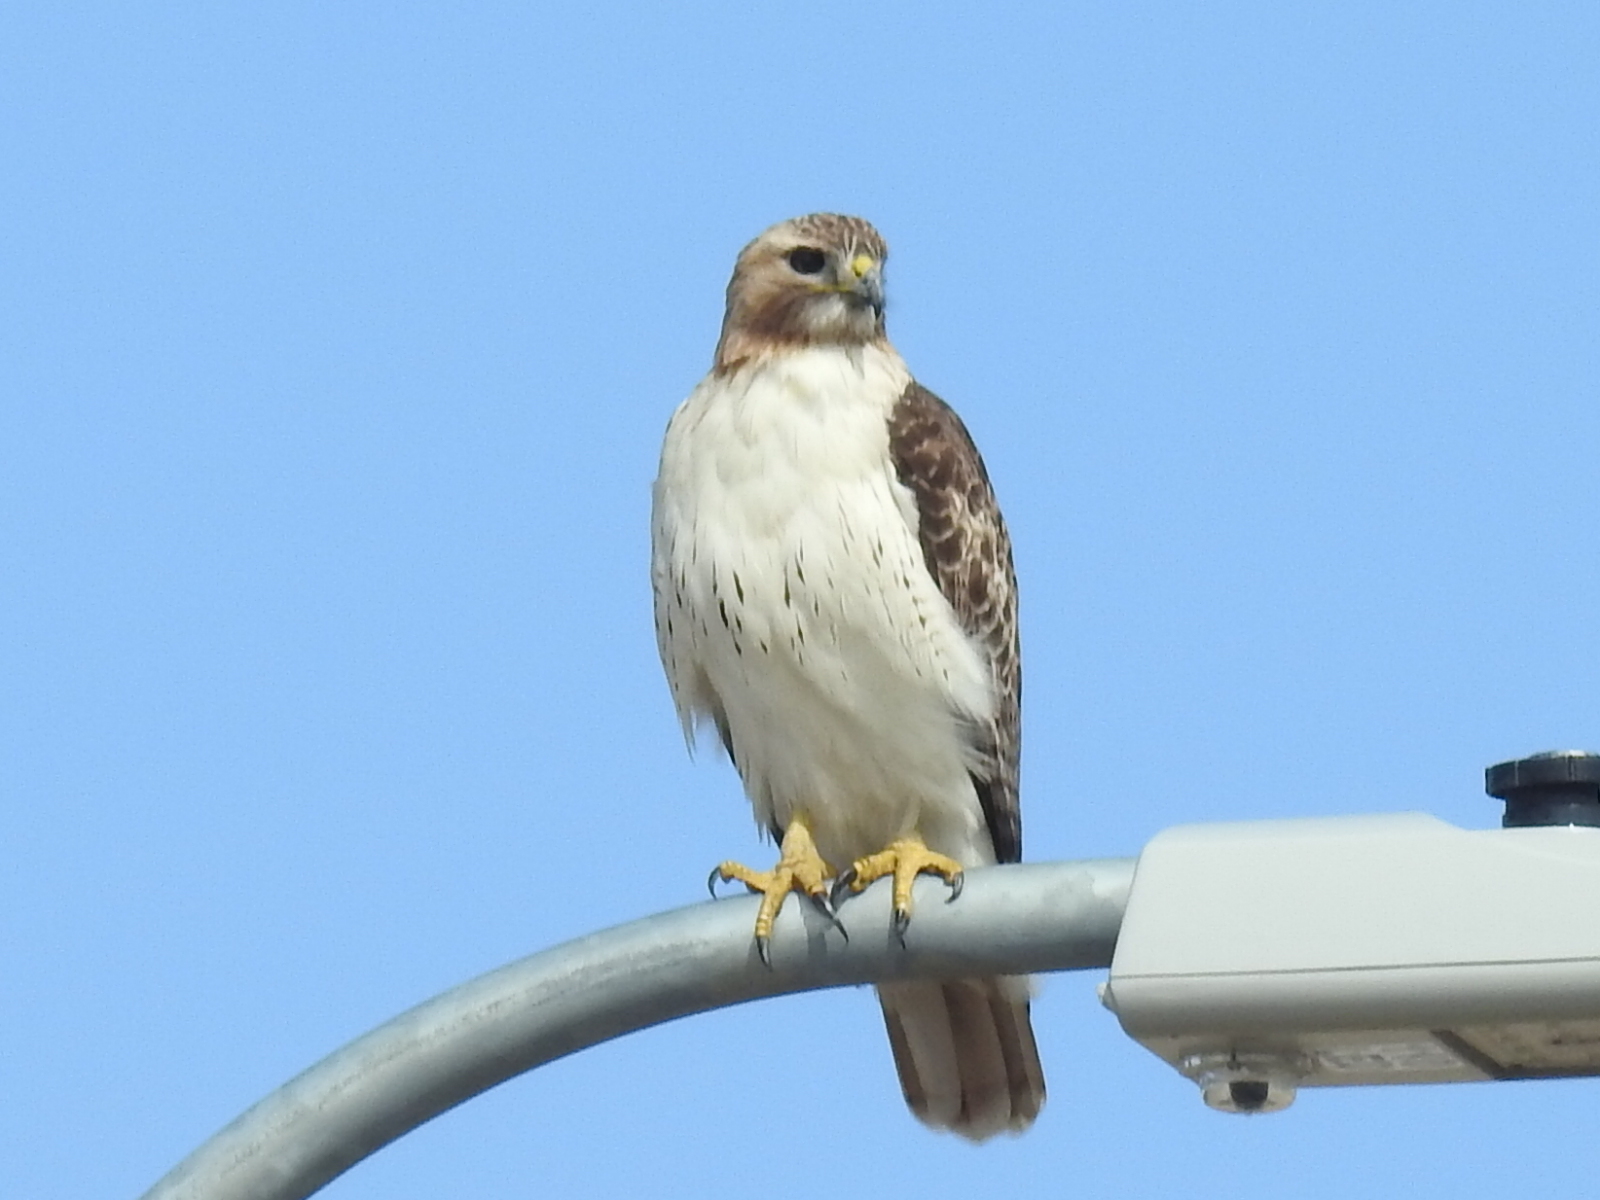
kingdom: Animalia
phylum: Chordata
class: Aves
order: Accipitriformes
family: Accipitridae
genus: Buteo
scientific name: Buteo jamaicensis
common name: Red-tailed hawk
